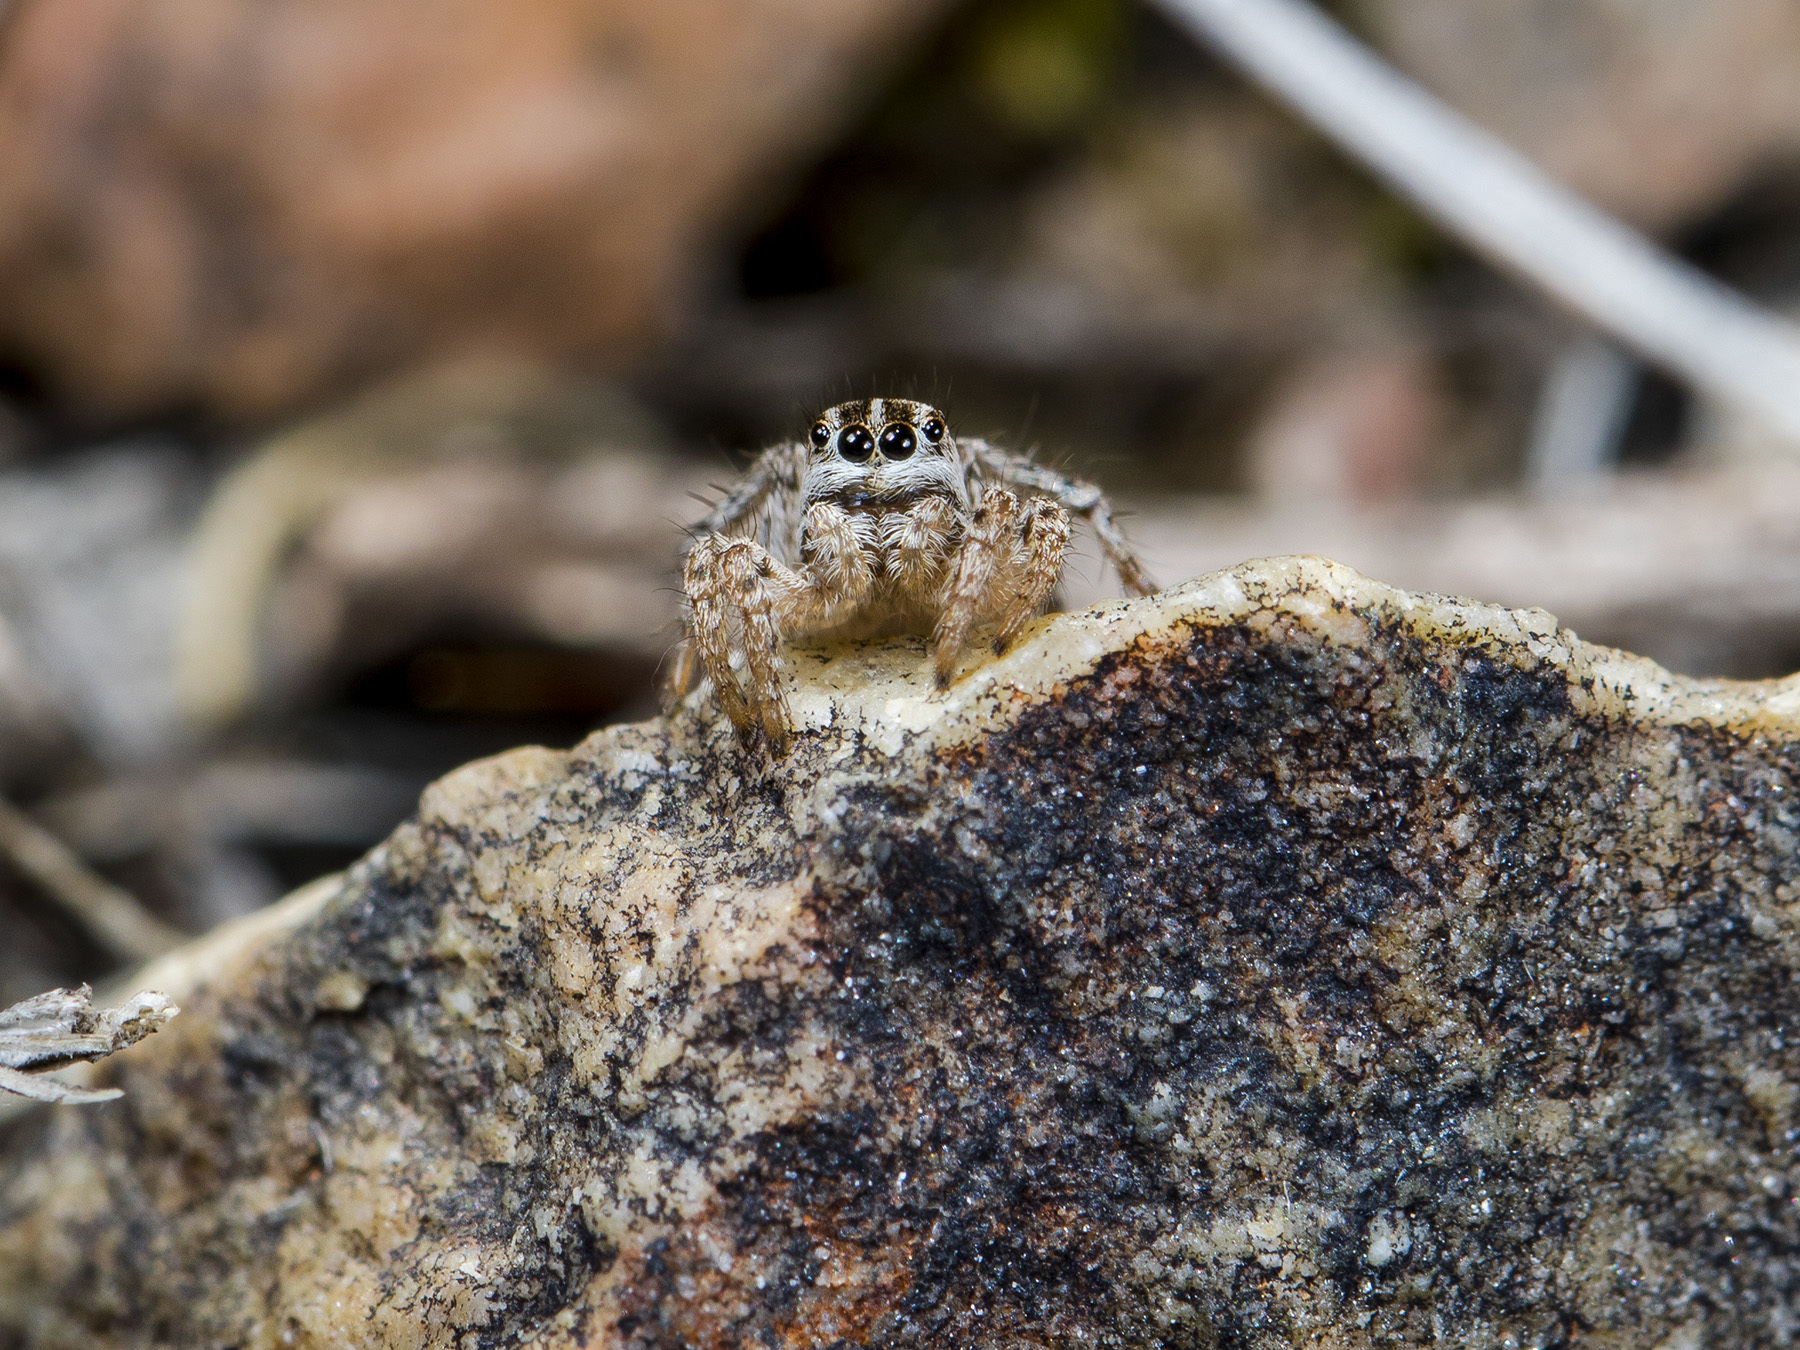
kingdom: Animalia
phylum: Arthropoda
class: Arachnida
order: Araneae
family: Salticidae
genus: Aelurillus
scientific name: Aelurillus m-nigrum
